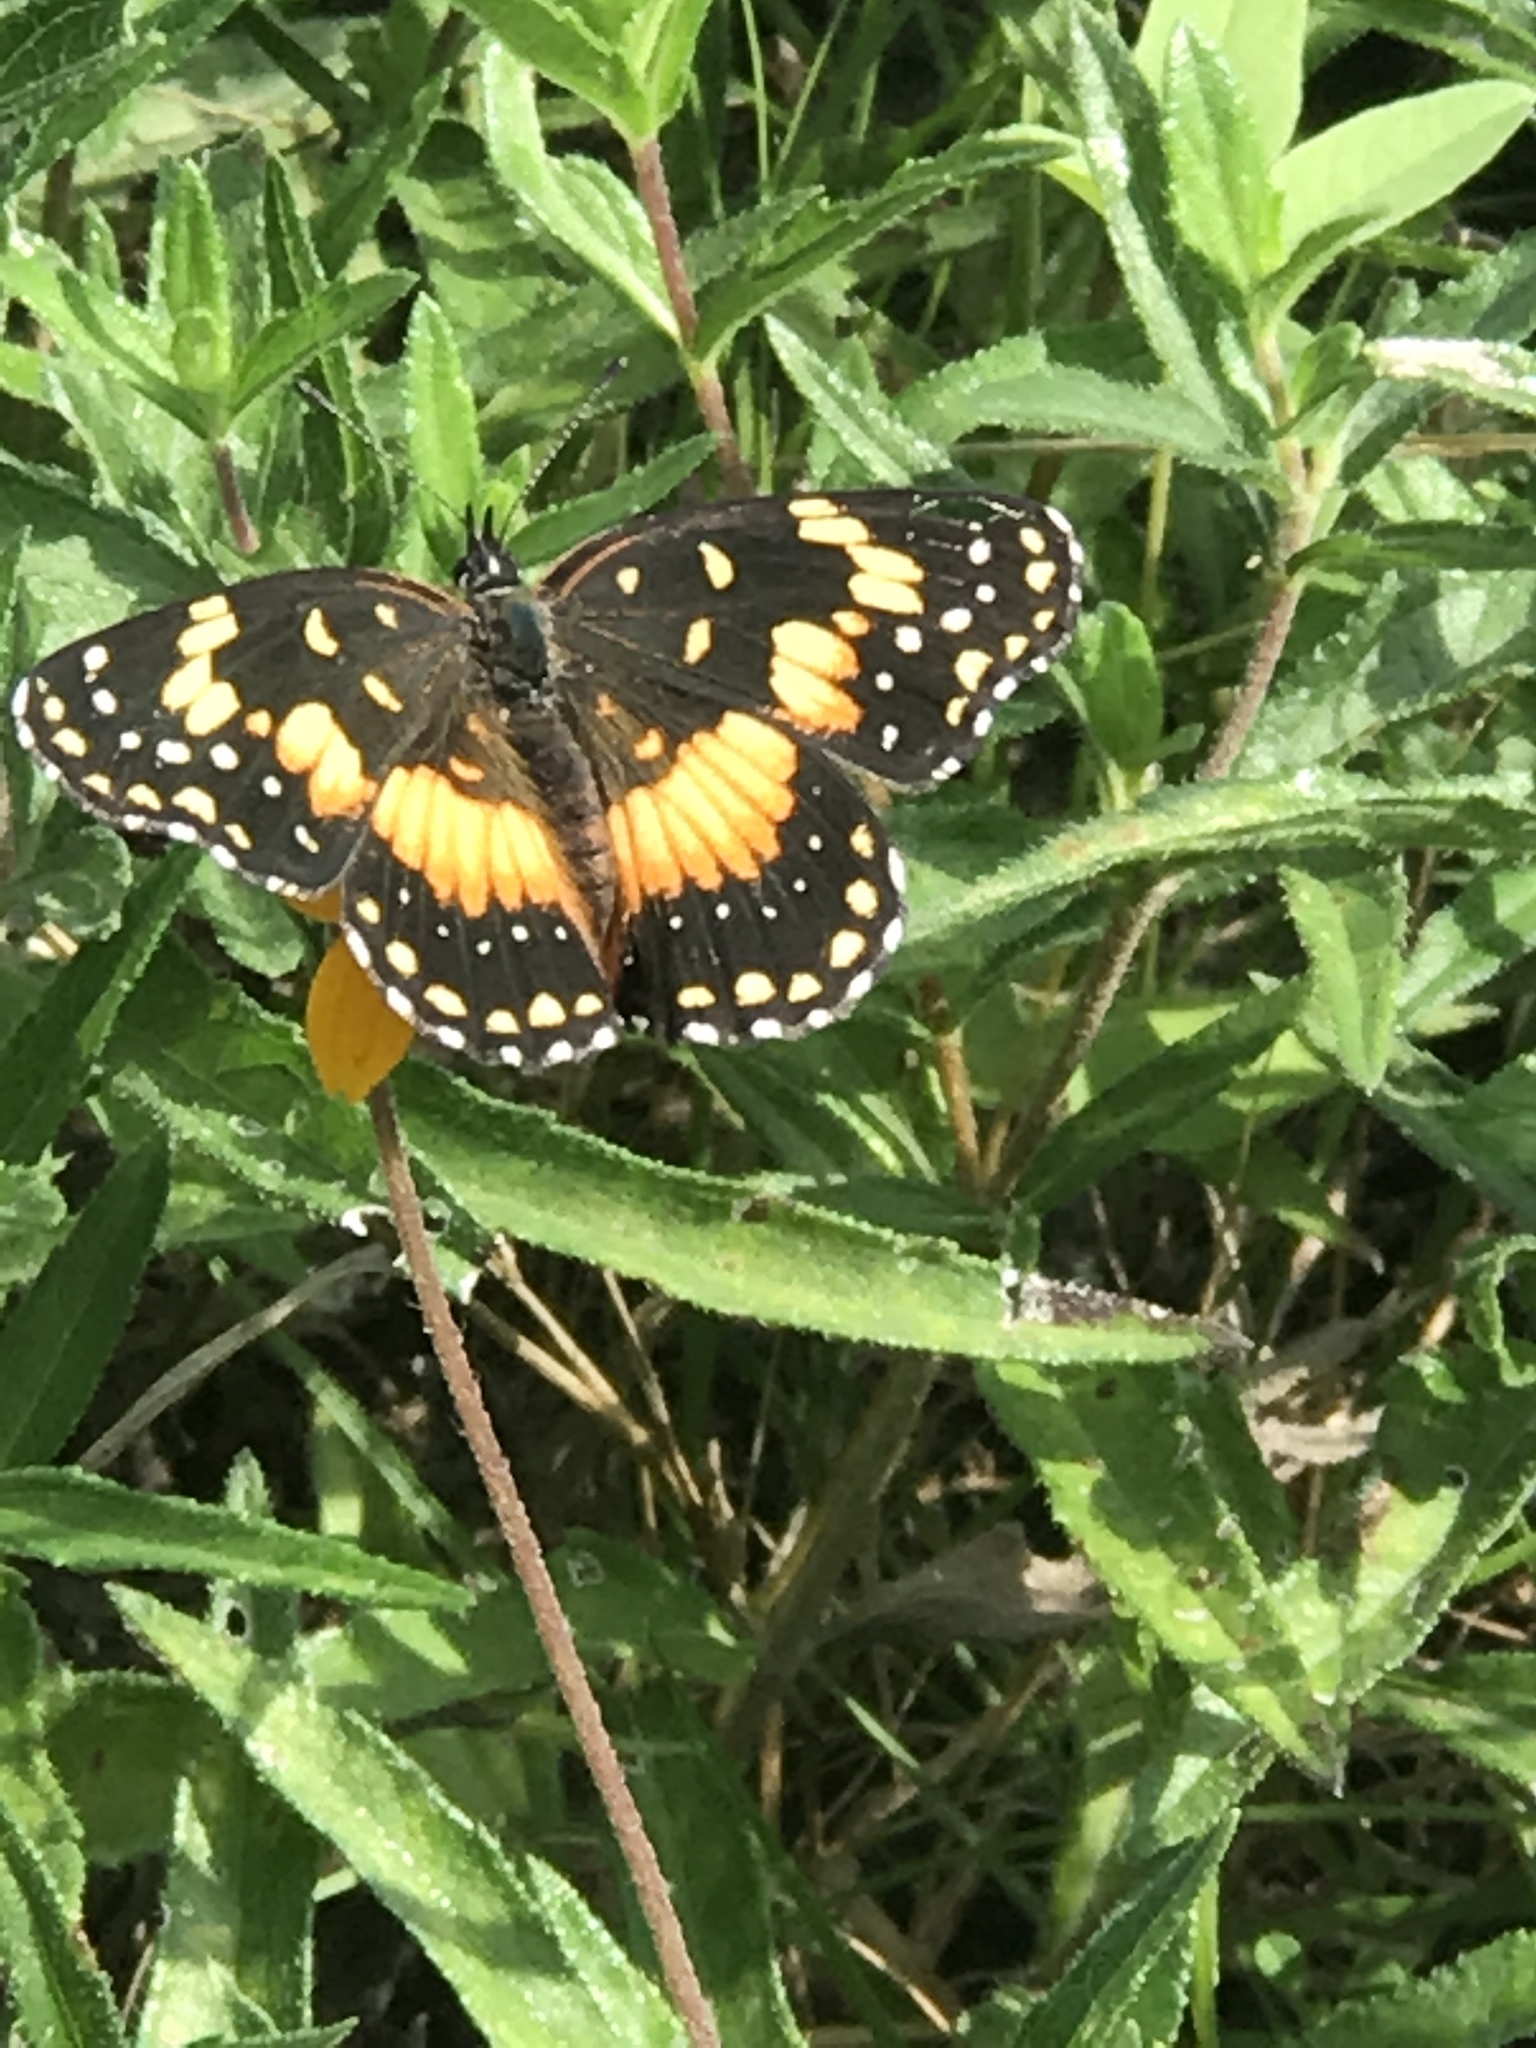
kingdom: Animalia
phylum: Arthropoda
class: Insecta
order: Lepidoptera
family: Nymphalidae
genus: Chlosyne
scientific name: Chlosyne lacinia
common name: Bordered patch
